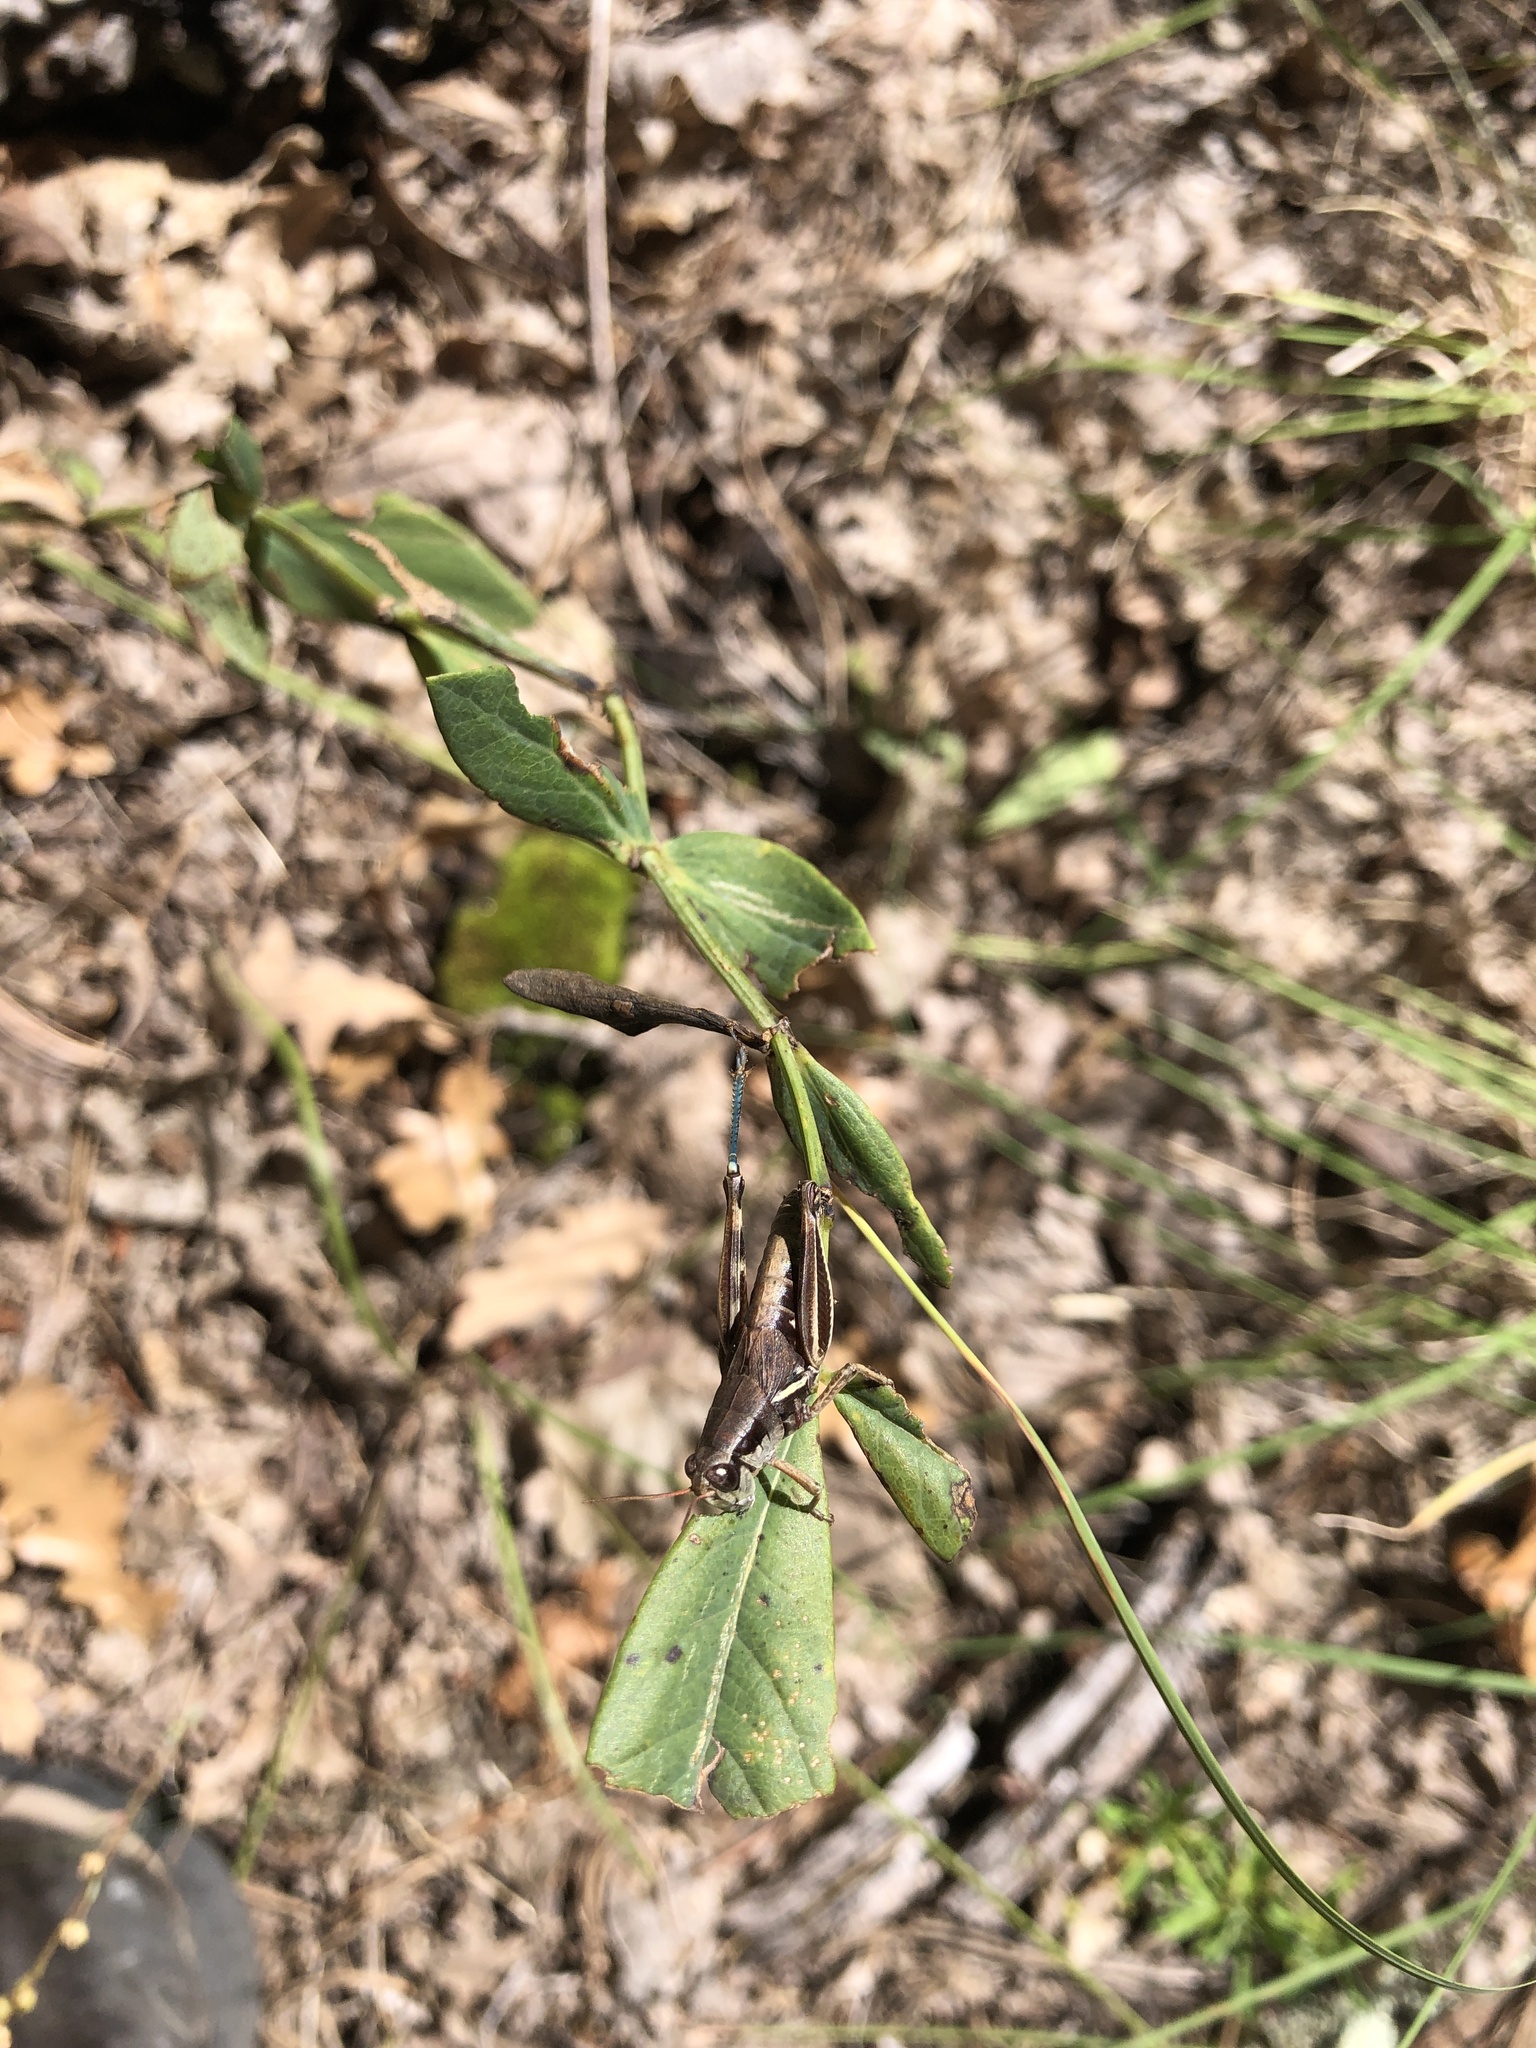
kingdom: Animalia
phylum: Arthropoda
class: Insecta
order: Orthoptera
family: Acrididae
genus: Melanoplus
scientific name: Melanoplus janus
